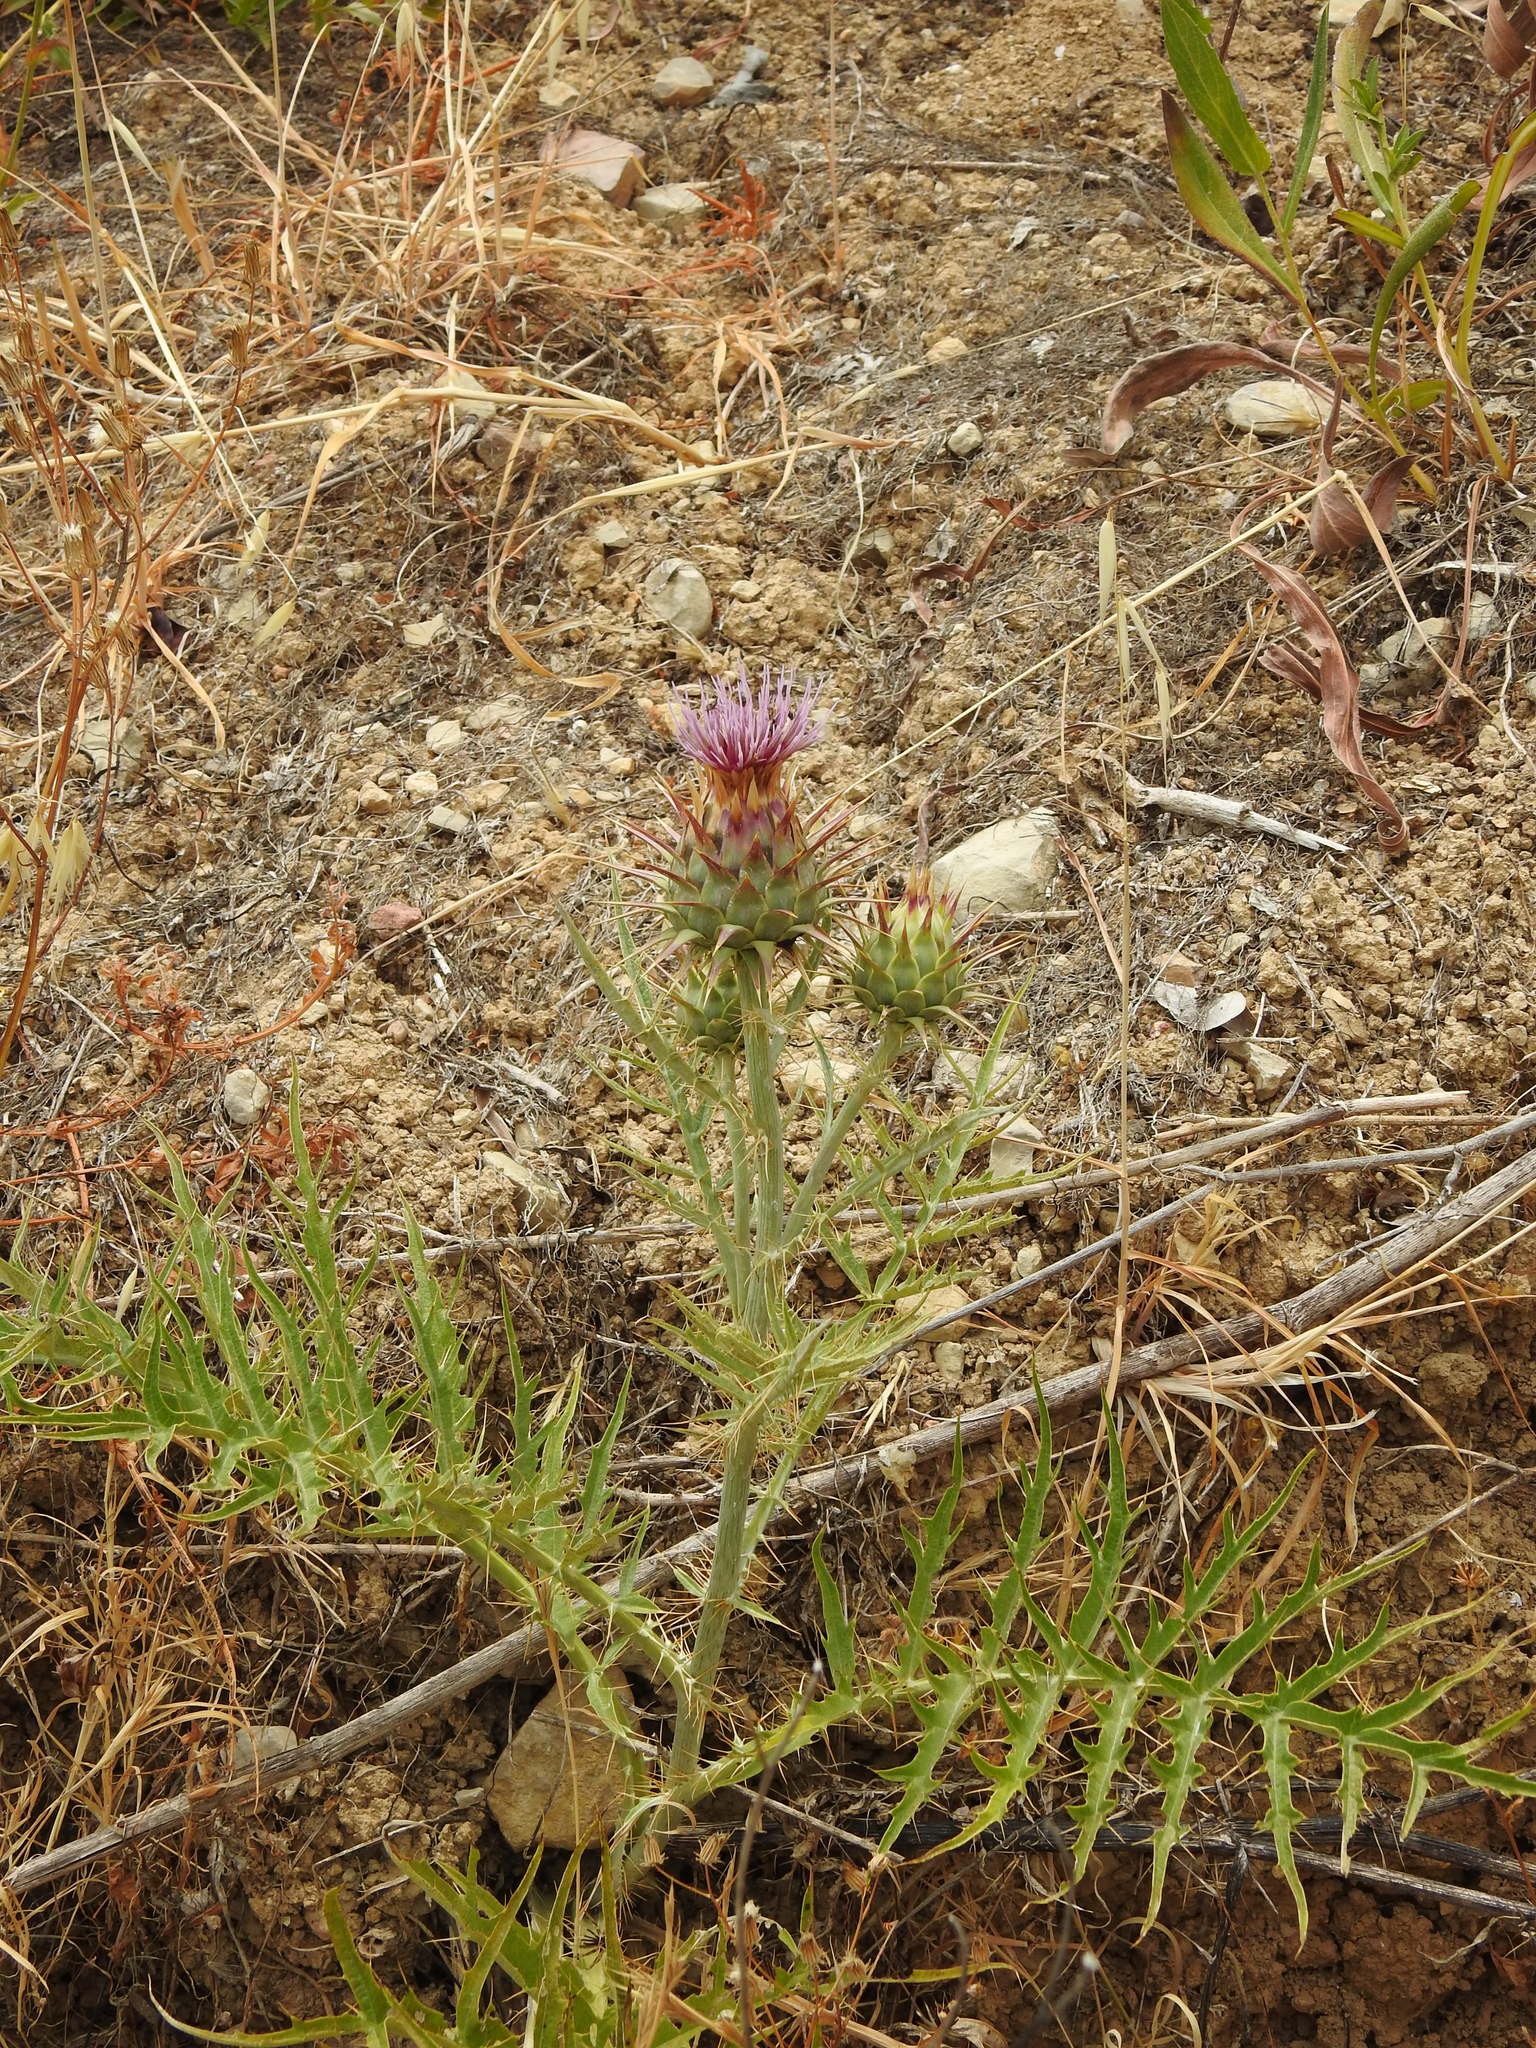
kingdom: Plantae
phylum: Tracheophyta
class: Magnoliopsida
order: Asterales
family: Asteraceae
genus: Cynara
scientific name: Cynara cardunculus
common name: Globe artichoke
